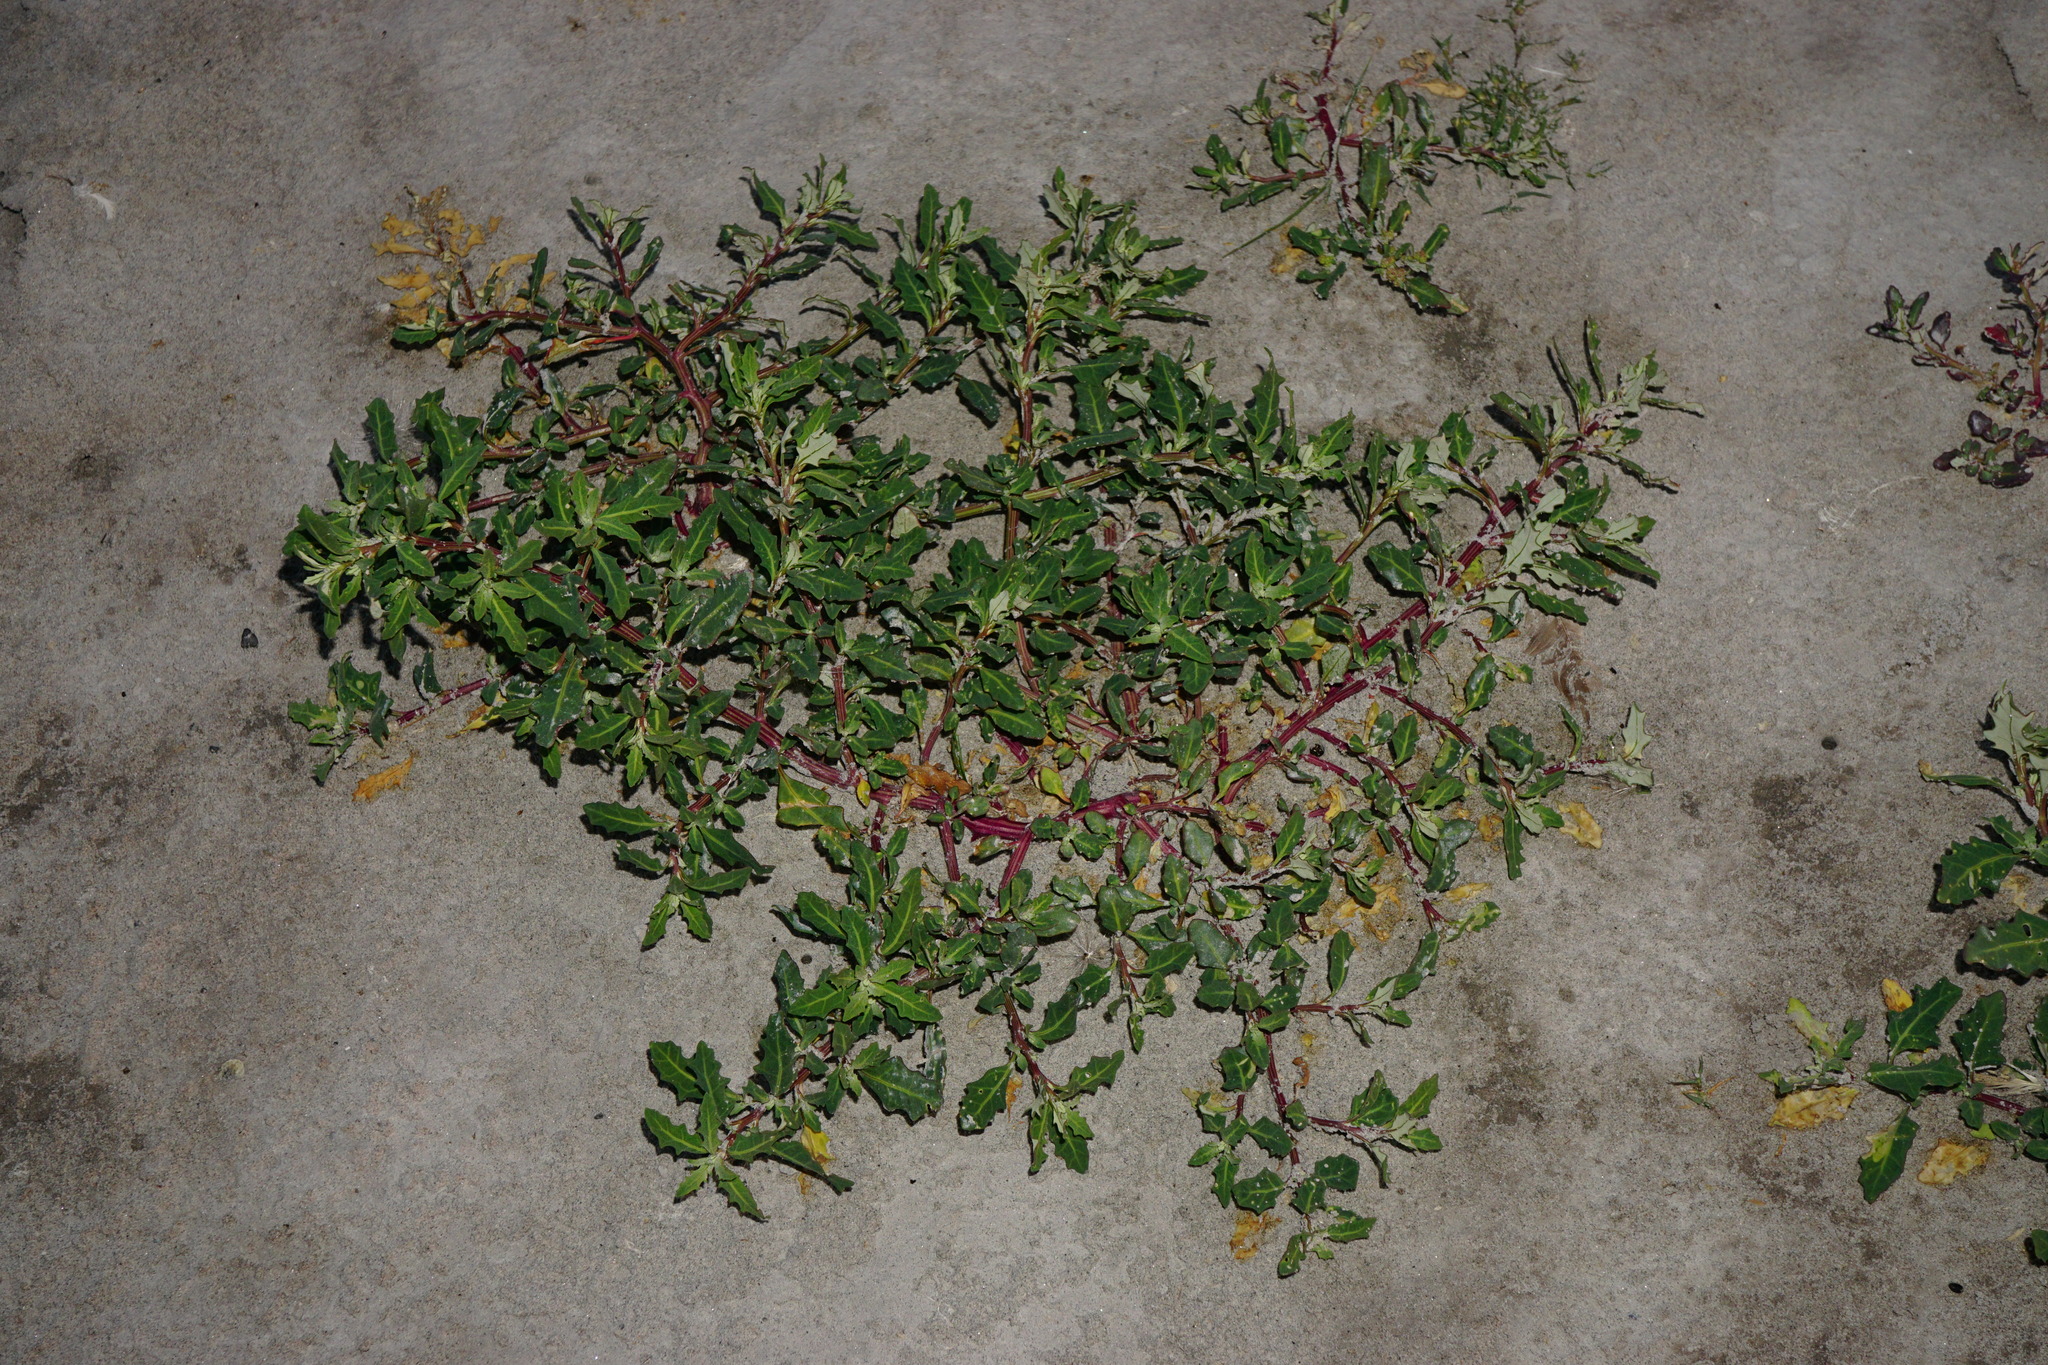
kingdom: Plantae
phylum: Tracheophyta
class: Magnoliopsida
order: Caryophyllales
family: Amaranthaceae
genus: Oxybasis
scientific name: Oxybasis glauca
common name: Glaucous goosefoot
